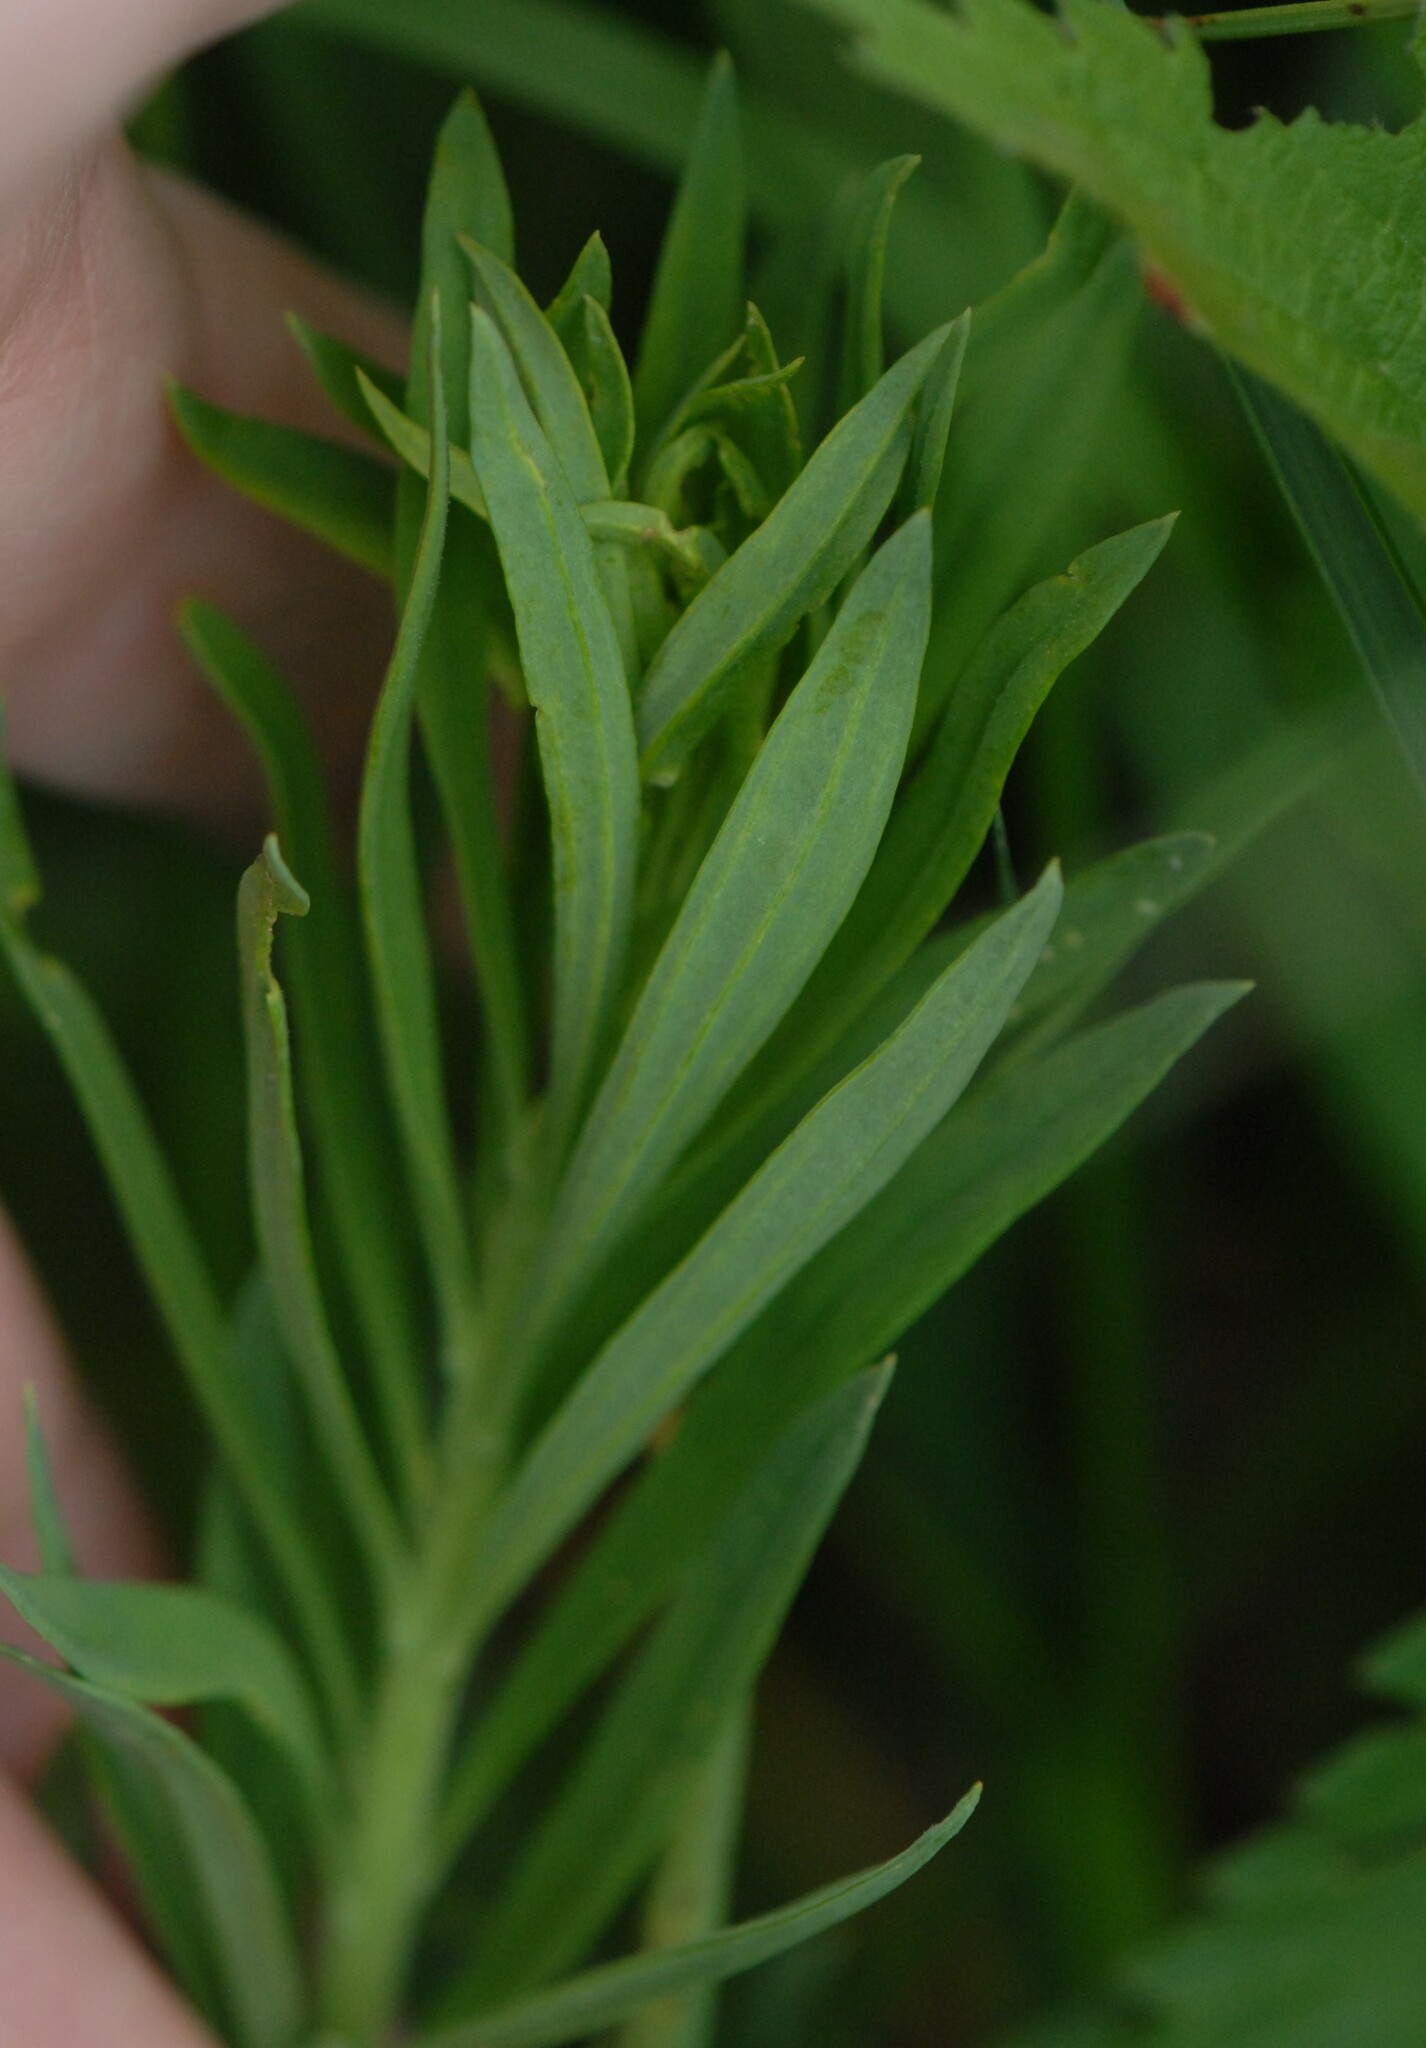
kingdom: Plantae
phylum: Tracheophyta
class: Magnoliopsida
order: Lamiales
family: Plantaginaceae
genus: Linaria
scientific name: Linaria vulgaris
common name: Butter and eggs
